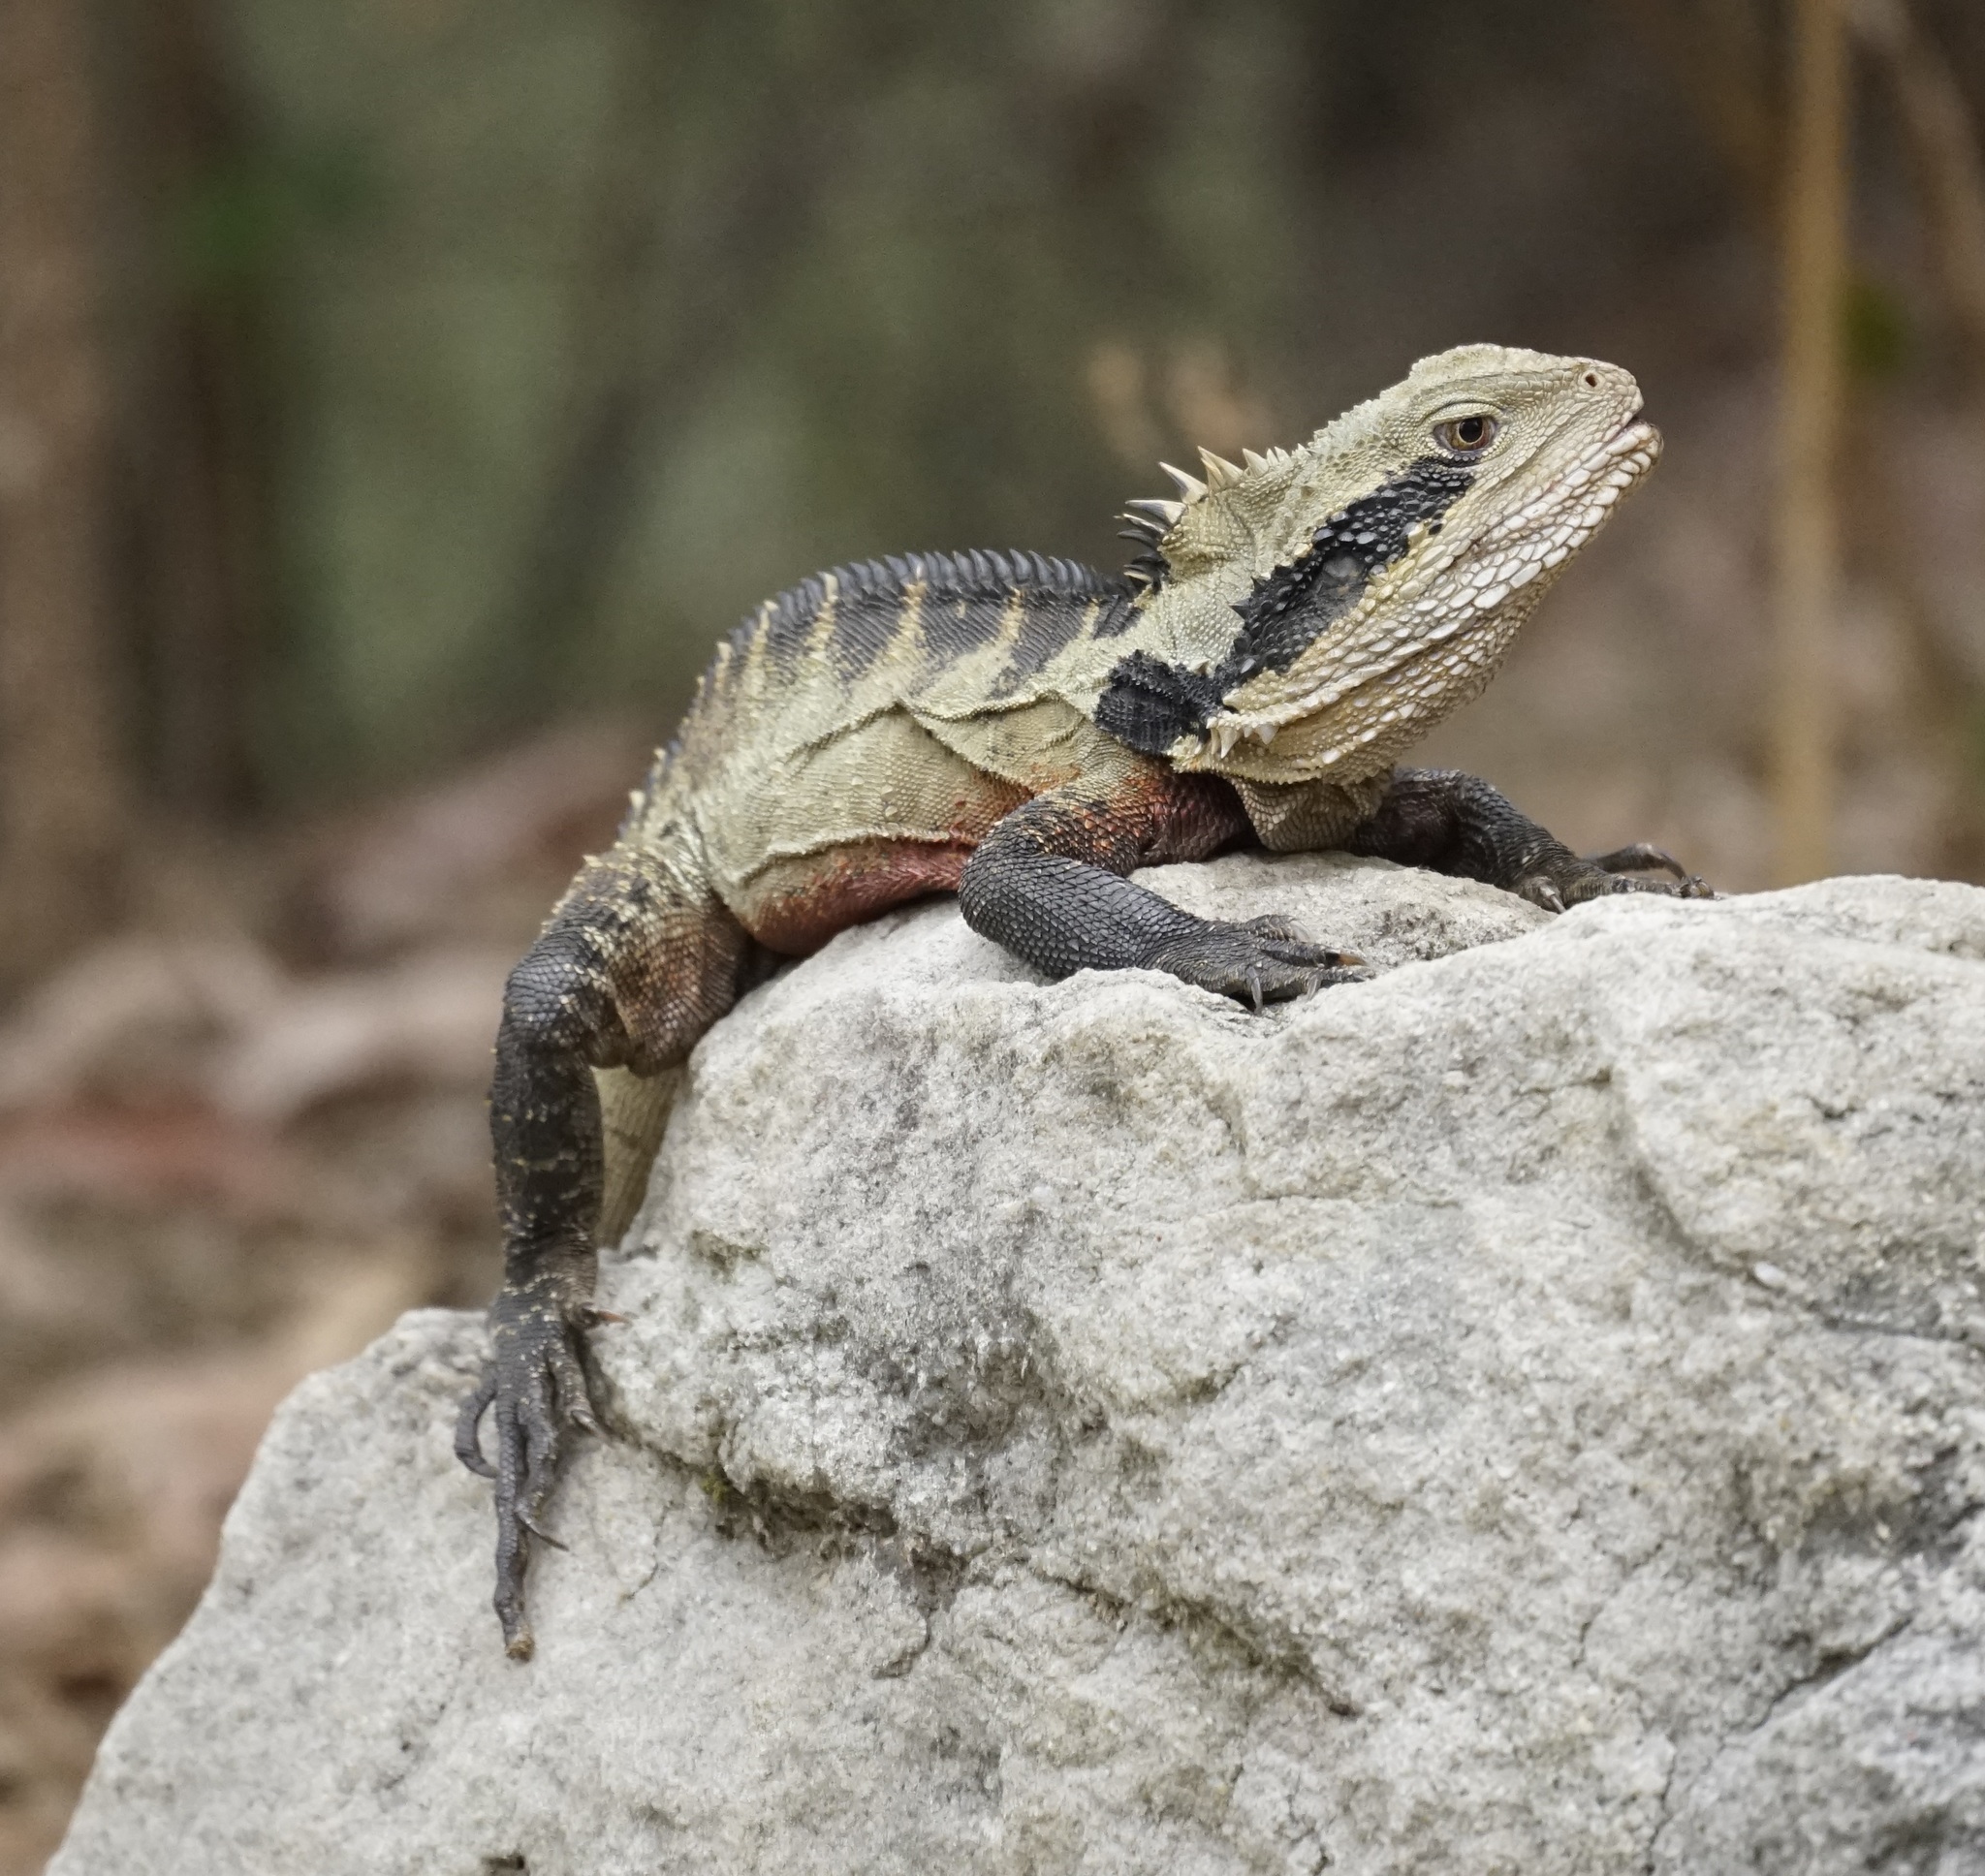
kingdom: Animalia
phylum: Chordata
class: Squamata
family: Agamidae
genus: Intellagama
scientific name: Intellagama lesueurii
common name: Eastern water dragon
